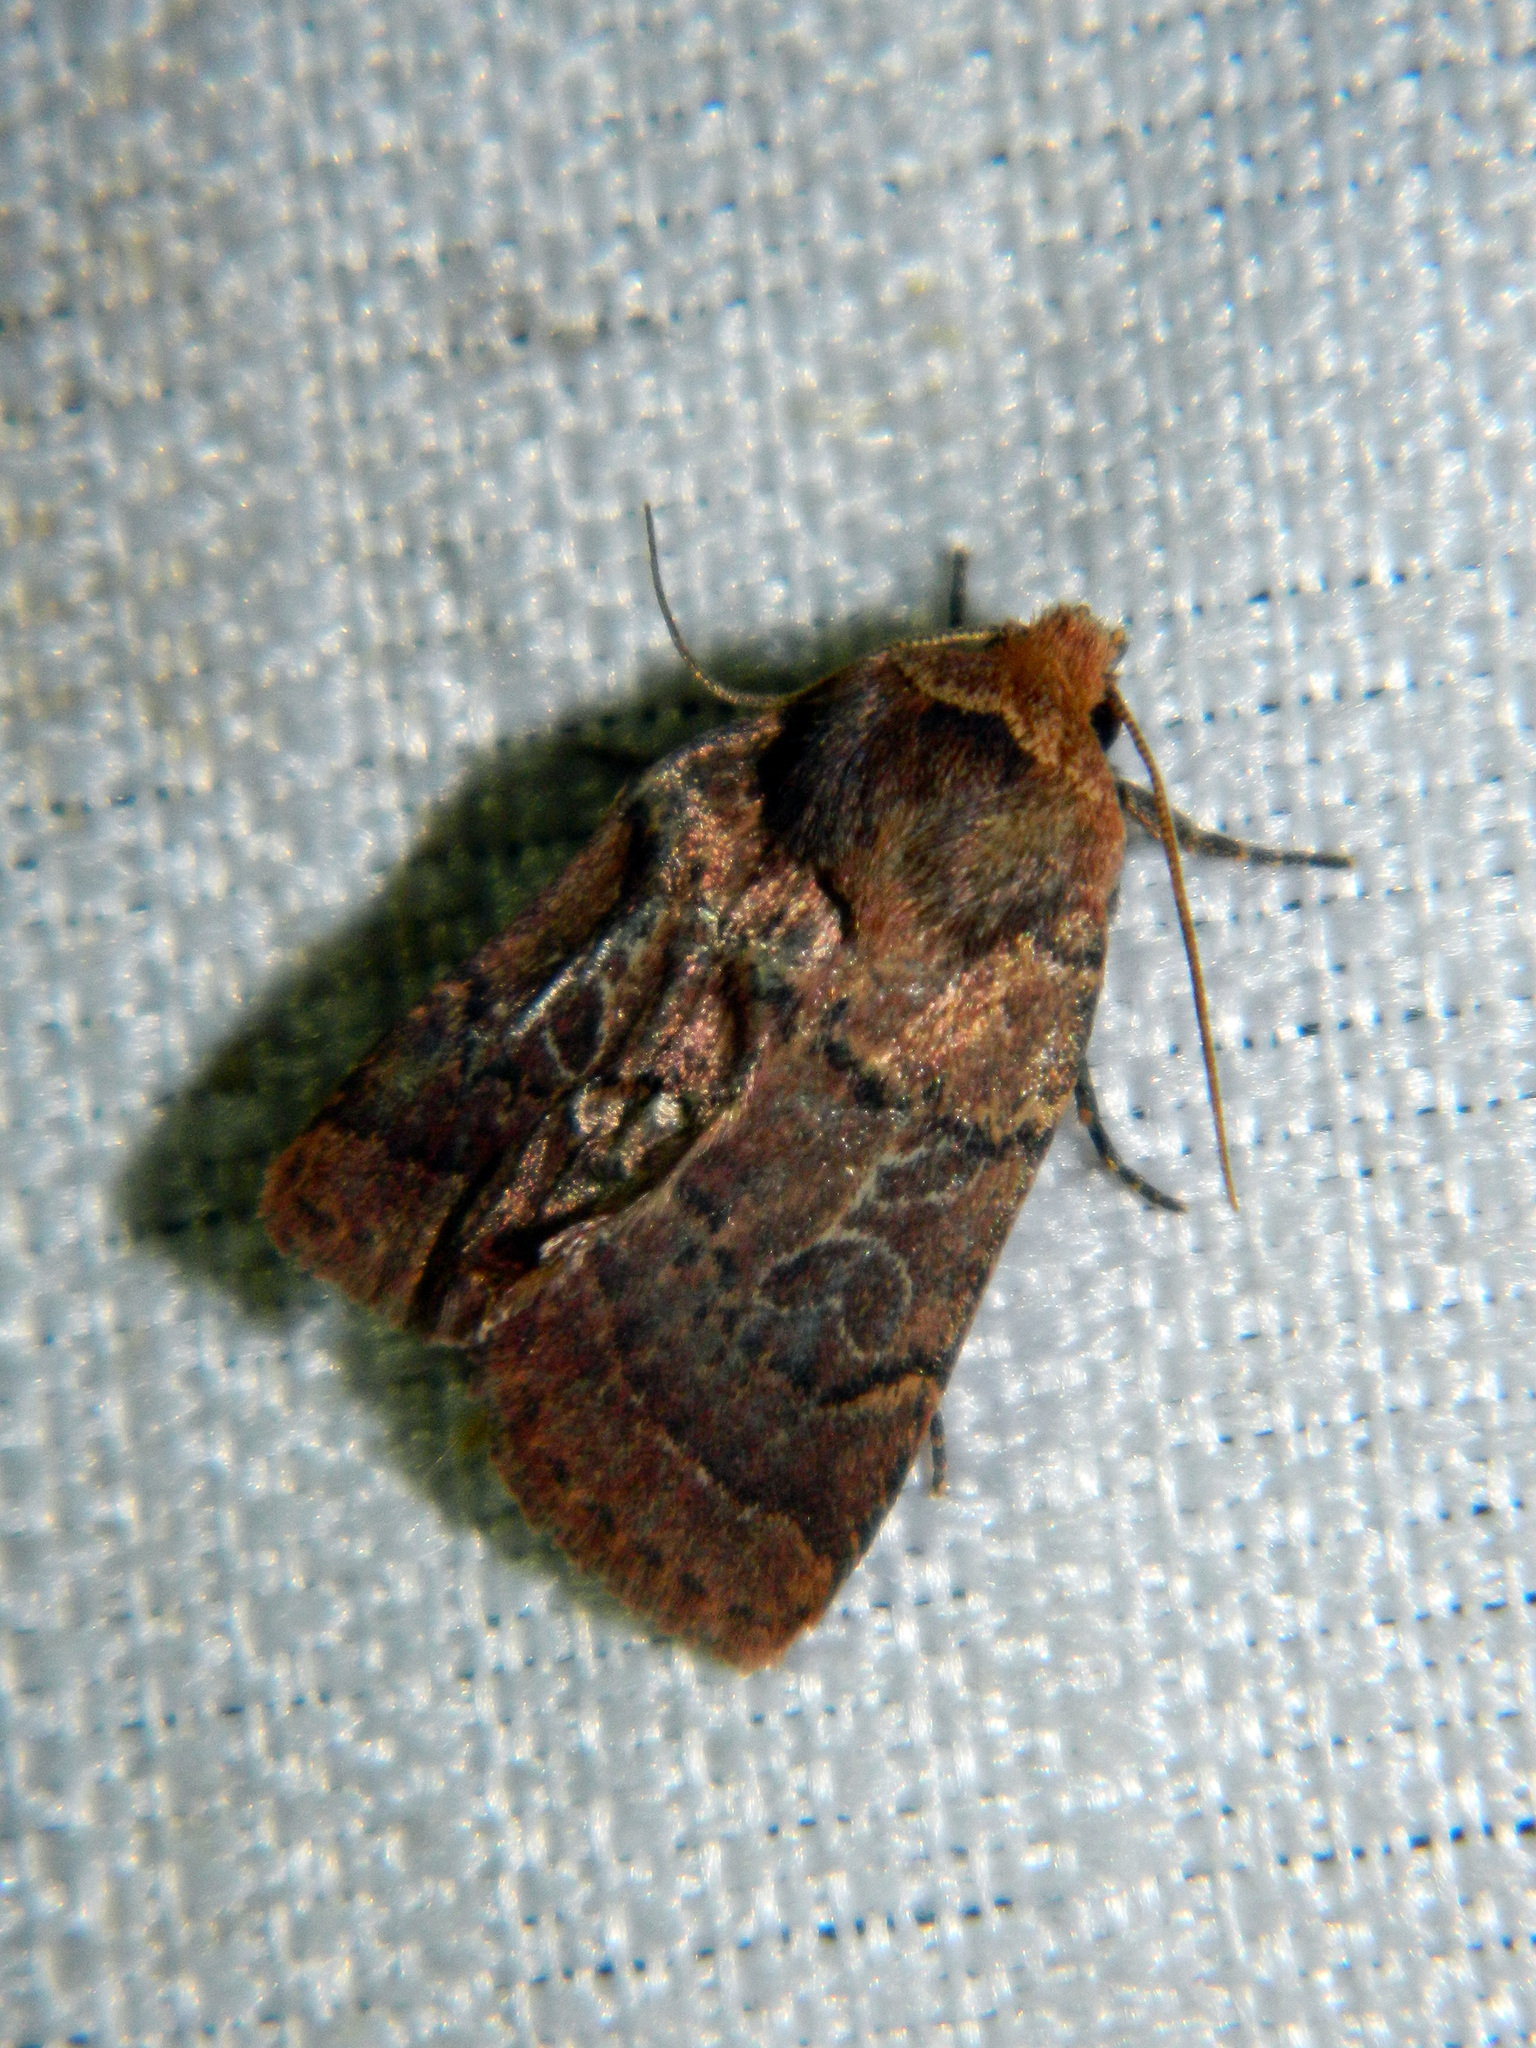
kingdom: Animalia
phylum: Arthropoda
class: Insecta
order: Lepidoptera
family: Noctuidae
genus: Orthodes
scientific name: Orthodes cynica
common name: Cynical quaker
